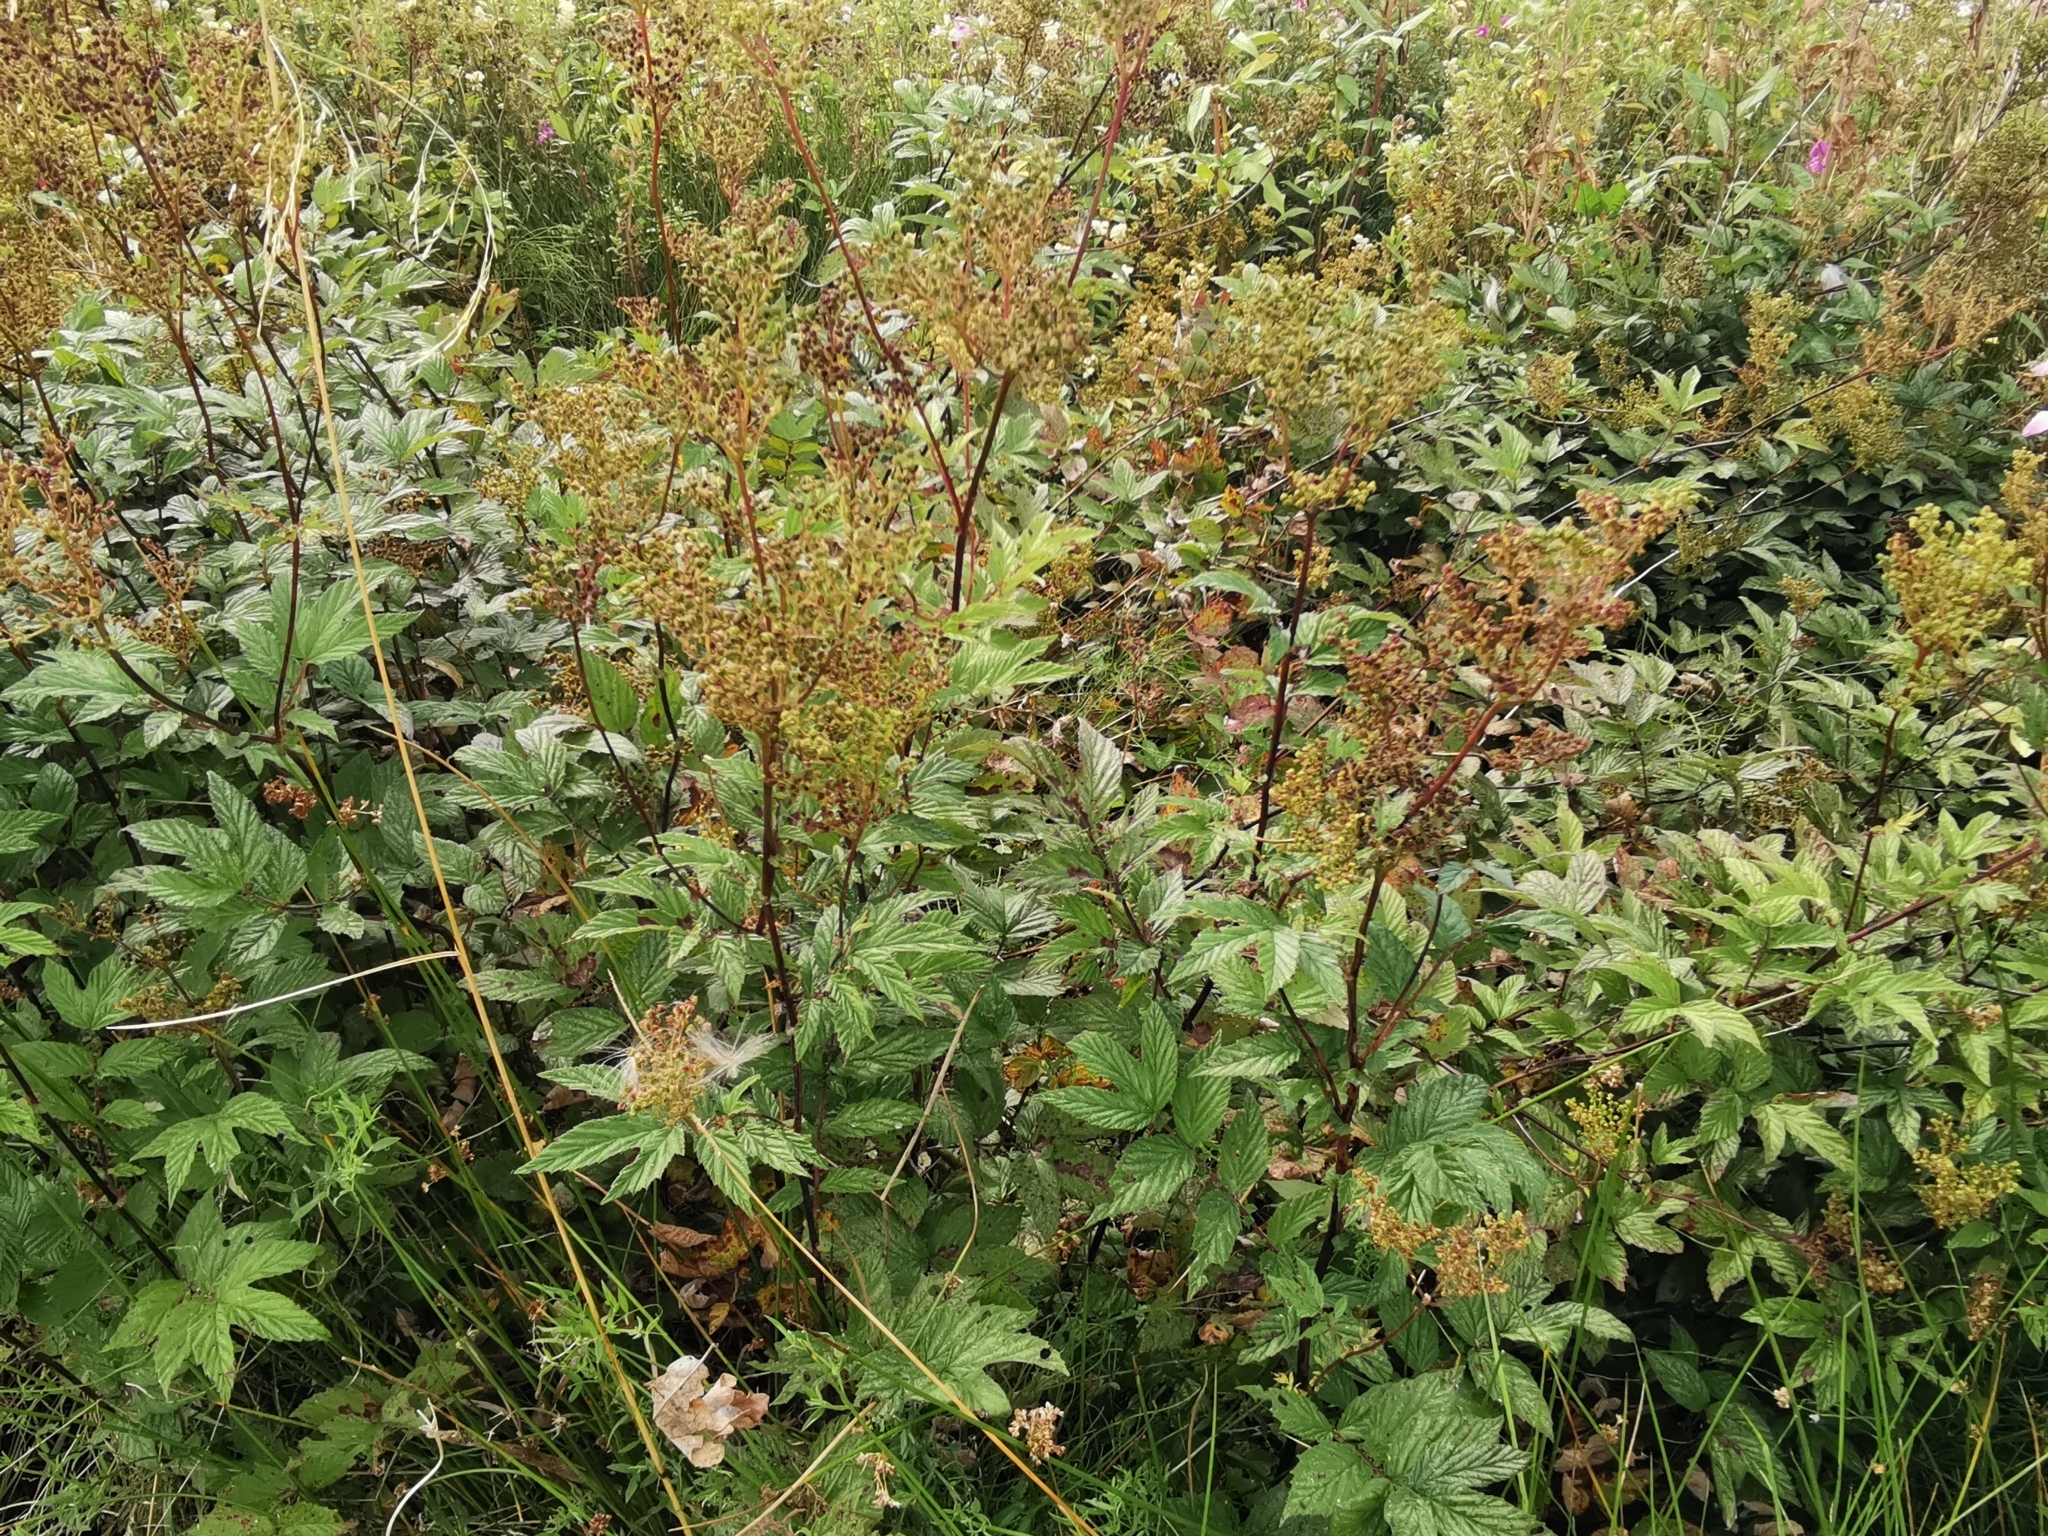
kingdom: Plantae
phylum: Tracheophyta
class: Magnoliopsida
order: Rosales
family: Rosaceae
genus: Filipendula
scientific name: Filipendula ulmaria
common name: Meadowsweet
